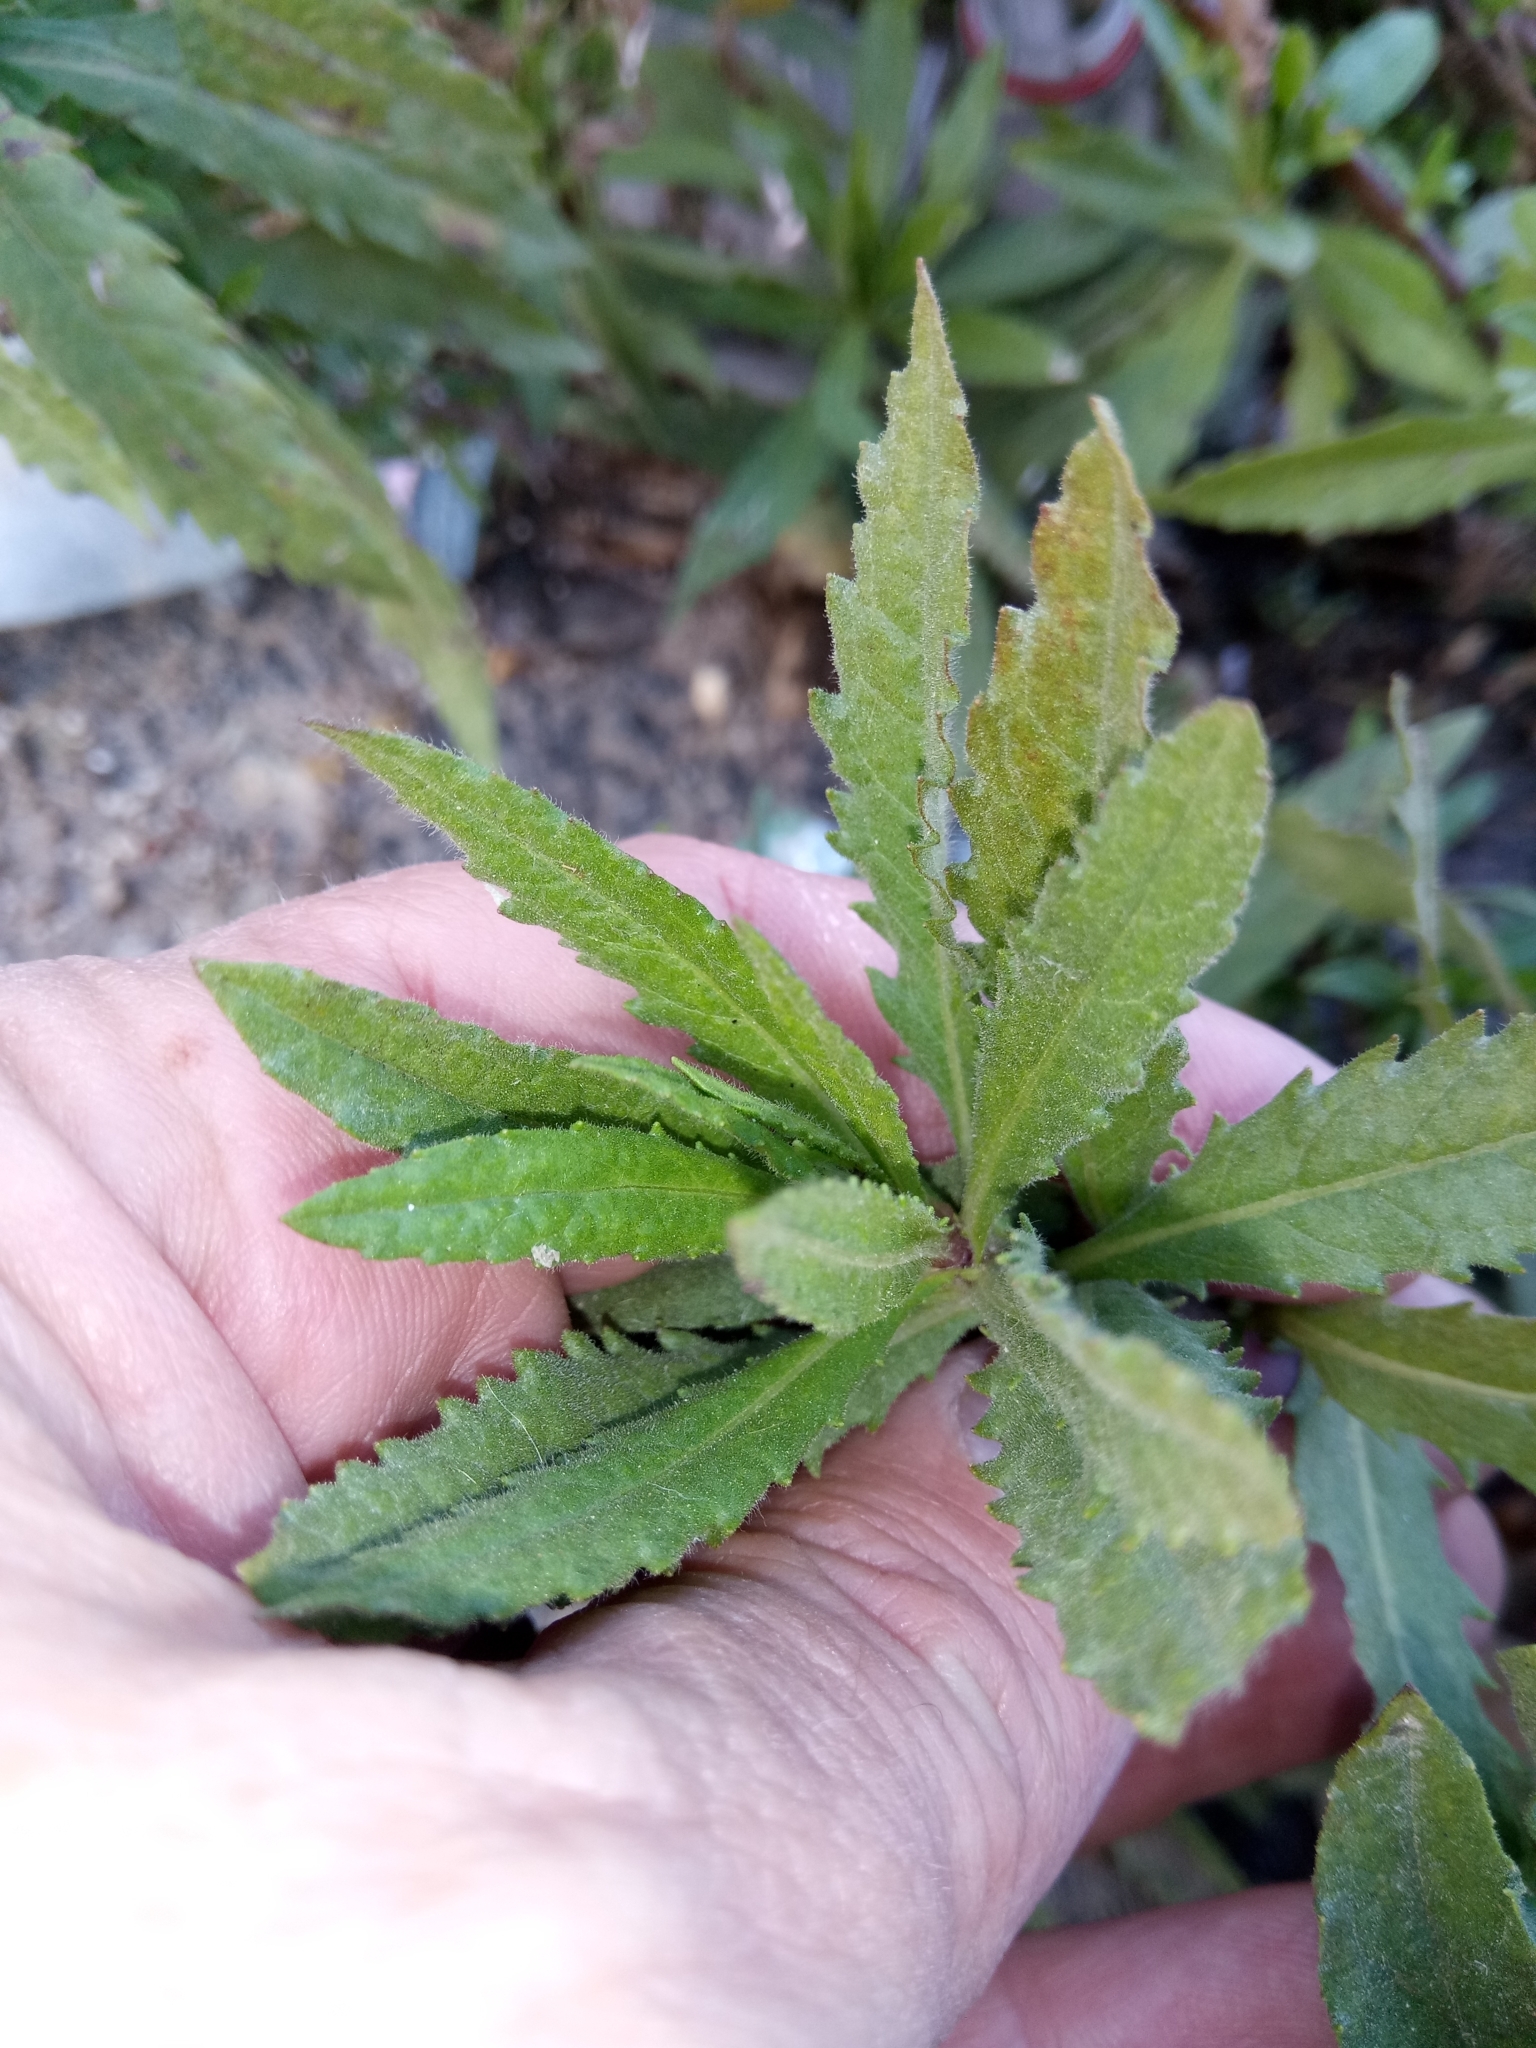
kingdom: Plantae
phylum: Tracheophyta
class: Magnoliopsida
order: Asterales
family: Asteraceae
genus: Dittrichia
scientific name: Dittrichia viscosa
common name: Woody fleabane
